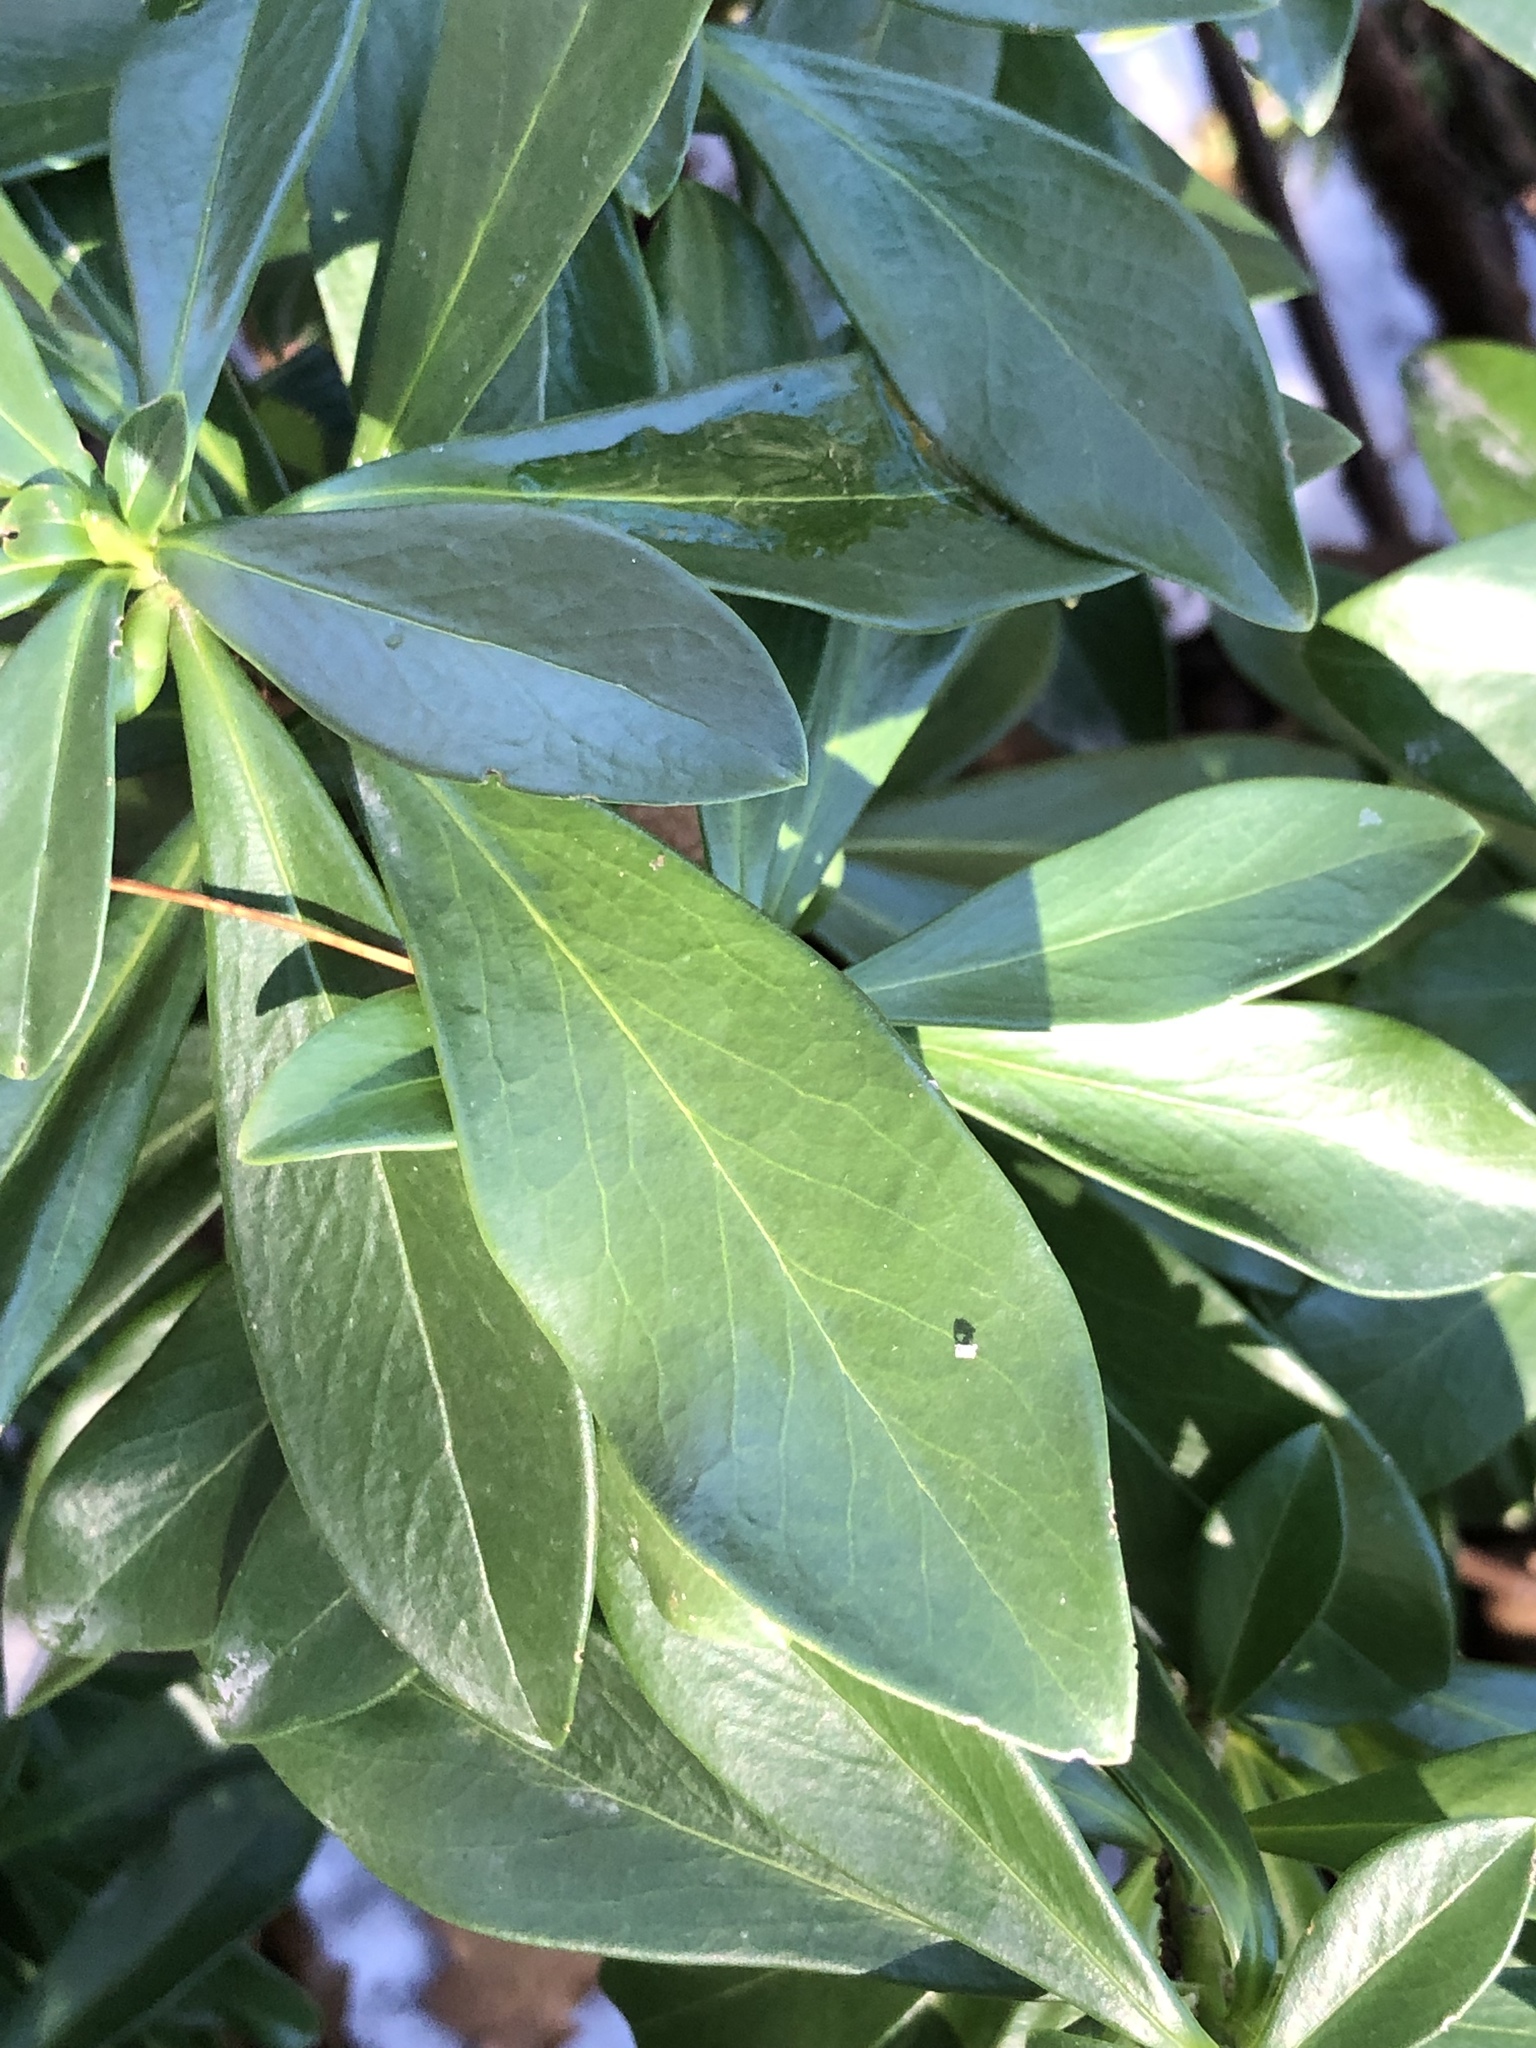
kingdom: Plantae
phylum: Tracheophyta
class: Magnoliopsida
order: Malvales
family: Thymelaeaceae
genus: Daphne
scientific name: Daphne laureola
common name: Spurge-laurel
